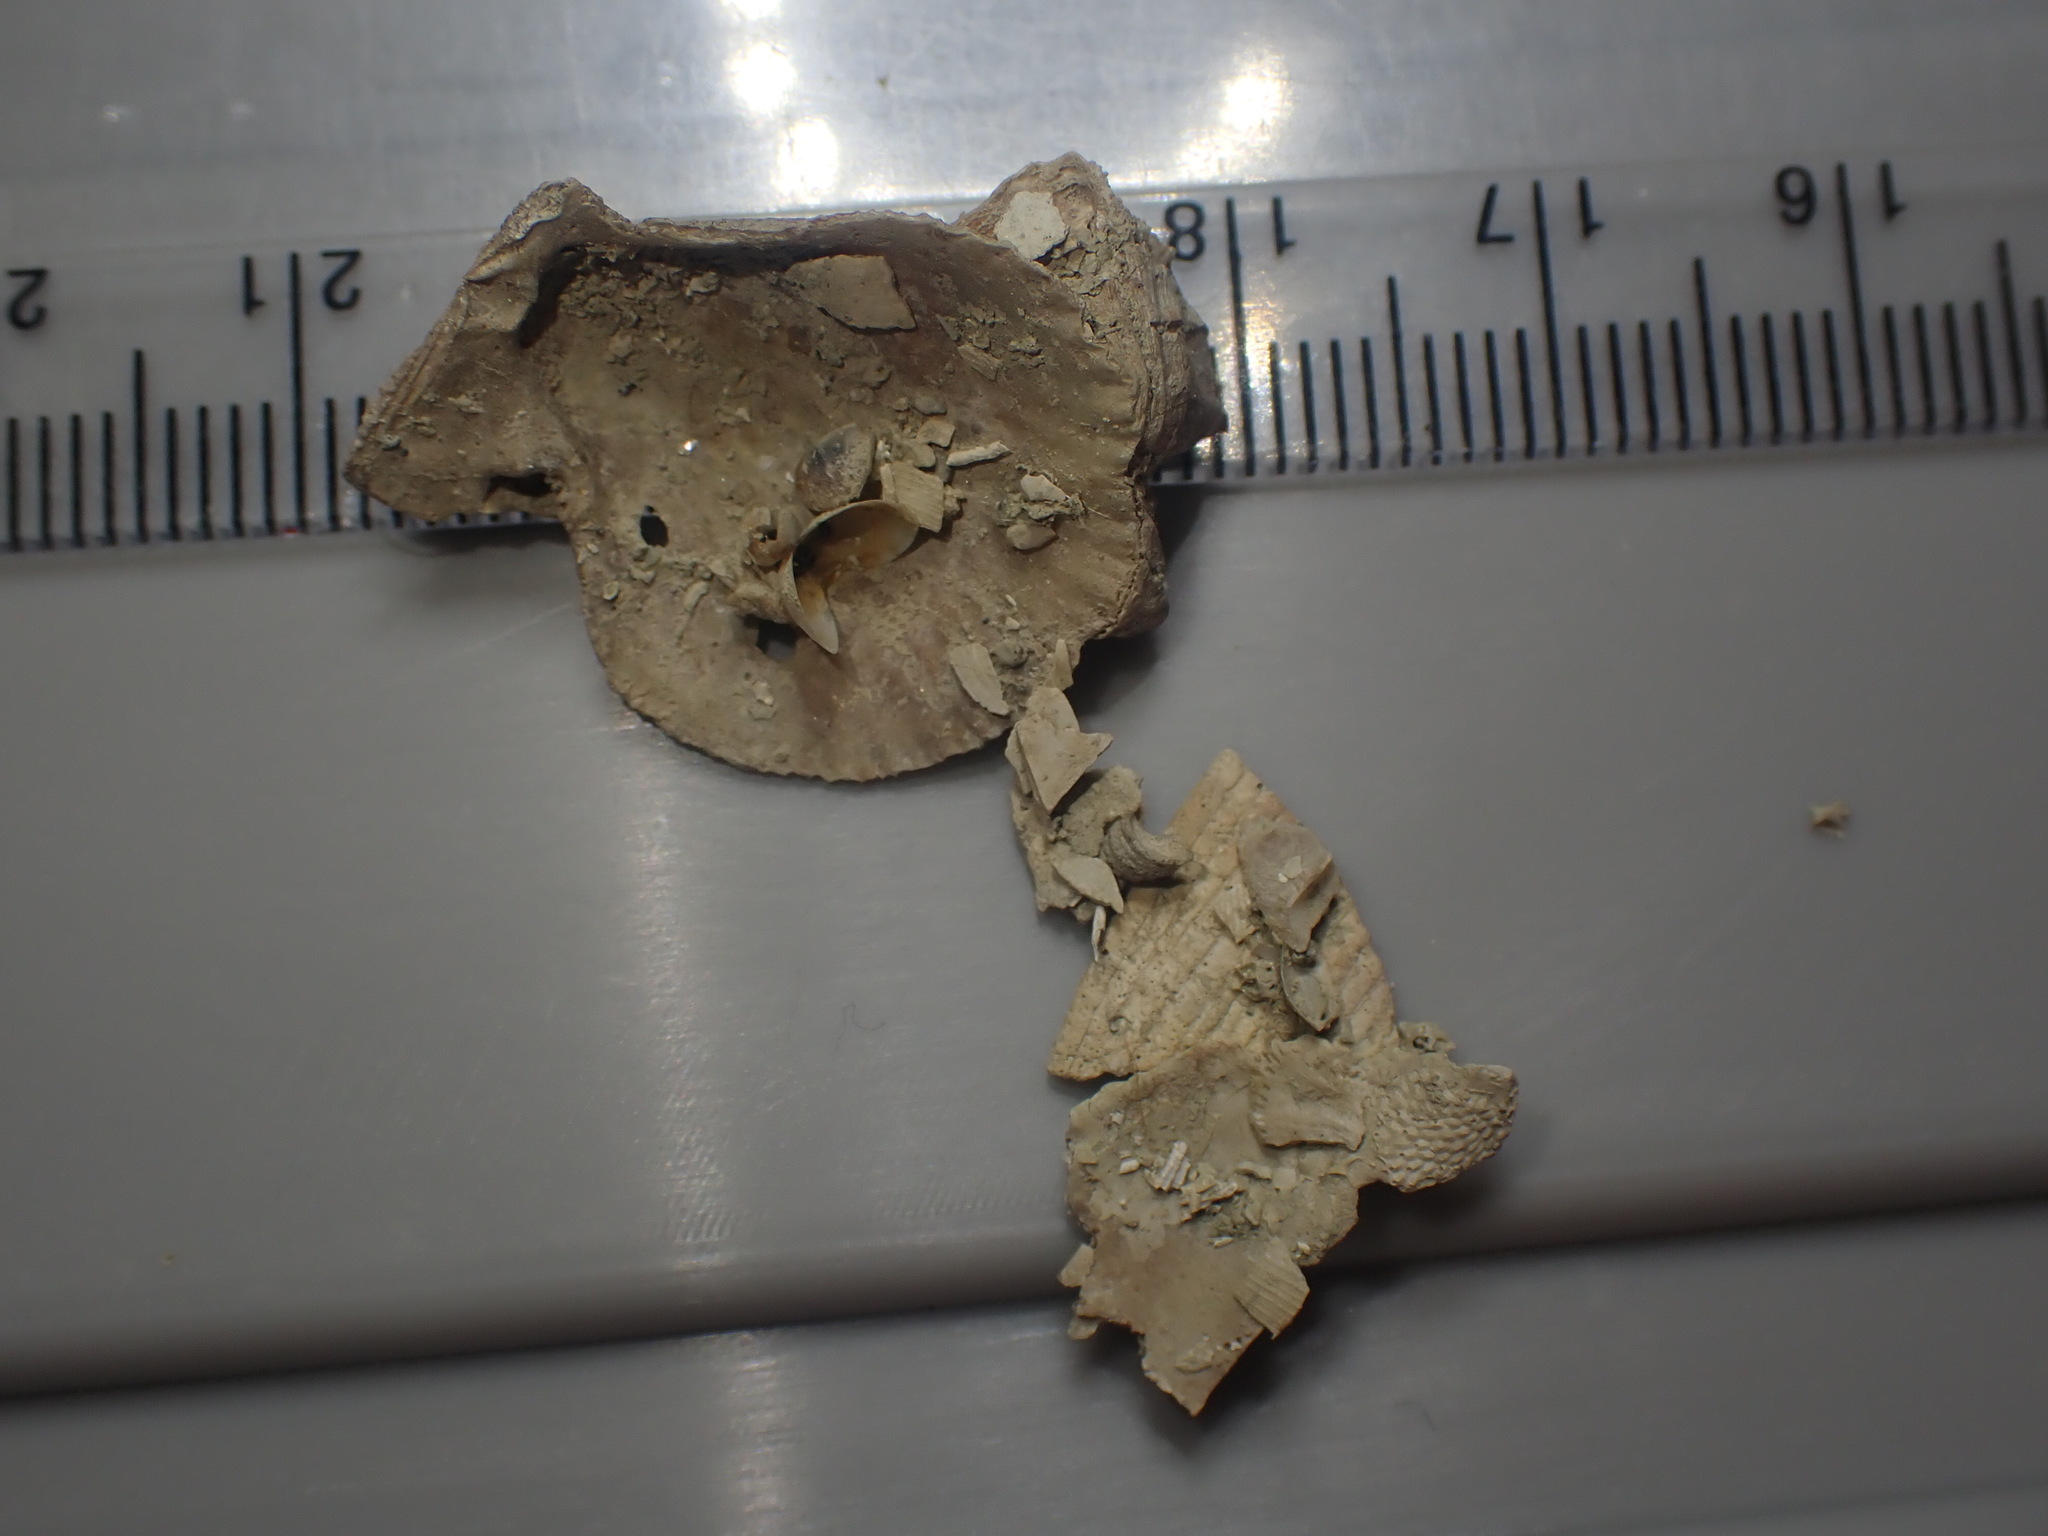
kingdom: Animalia
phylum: Mollusca
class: Bivalvia
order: Limida
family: Limidae
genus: Limaria
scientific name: Limaria orientalis
